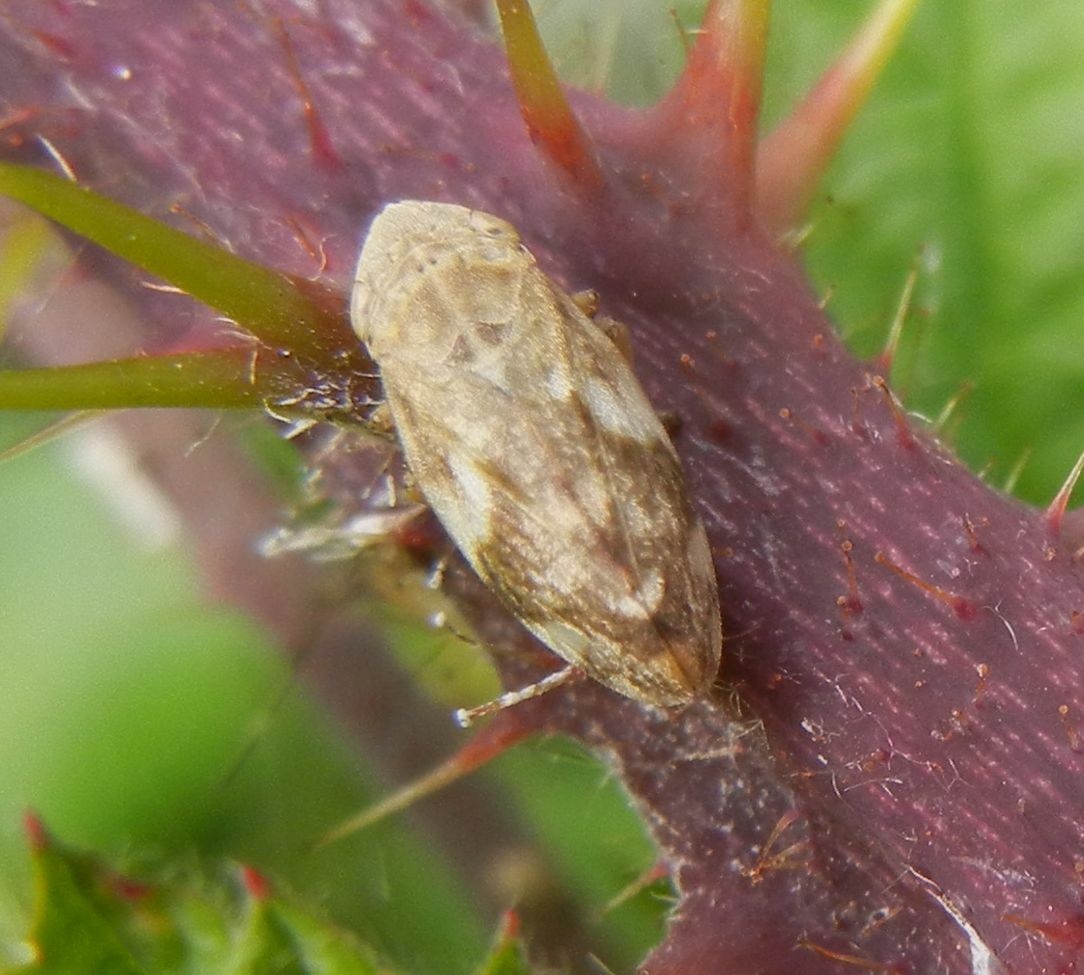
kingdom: Animalia
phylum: Arthropoda
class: Insecta
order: Hemiptera
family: Aphrophoridae
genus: Philaenus
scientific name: Philaenus spumarius
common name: Meadow spittlebug
